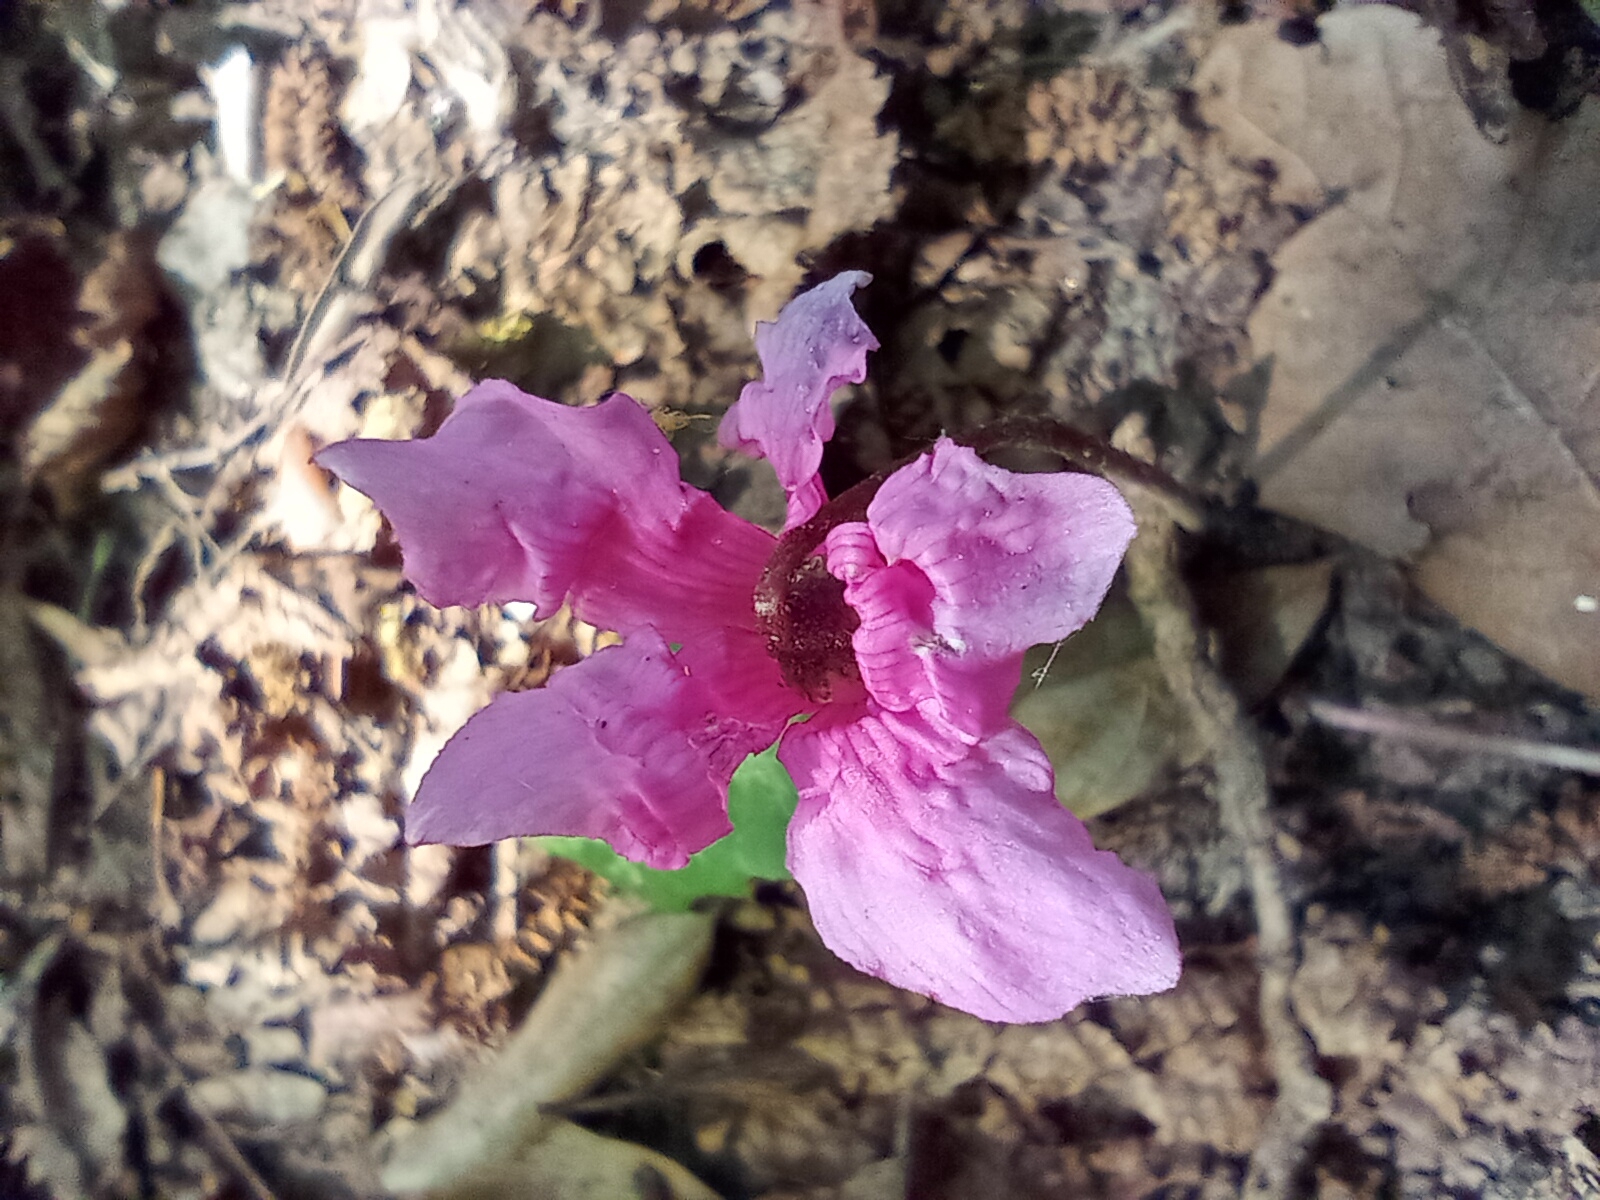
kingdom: Plantae
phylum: Tracheophyta
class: Magnoliopsida
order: Ericales
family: Primulaceae
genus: Cyclamen
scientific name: Cyclamen repandum
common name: Spring sowbread
